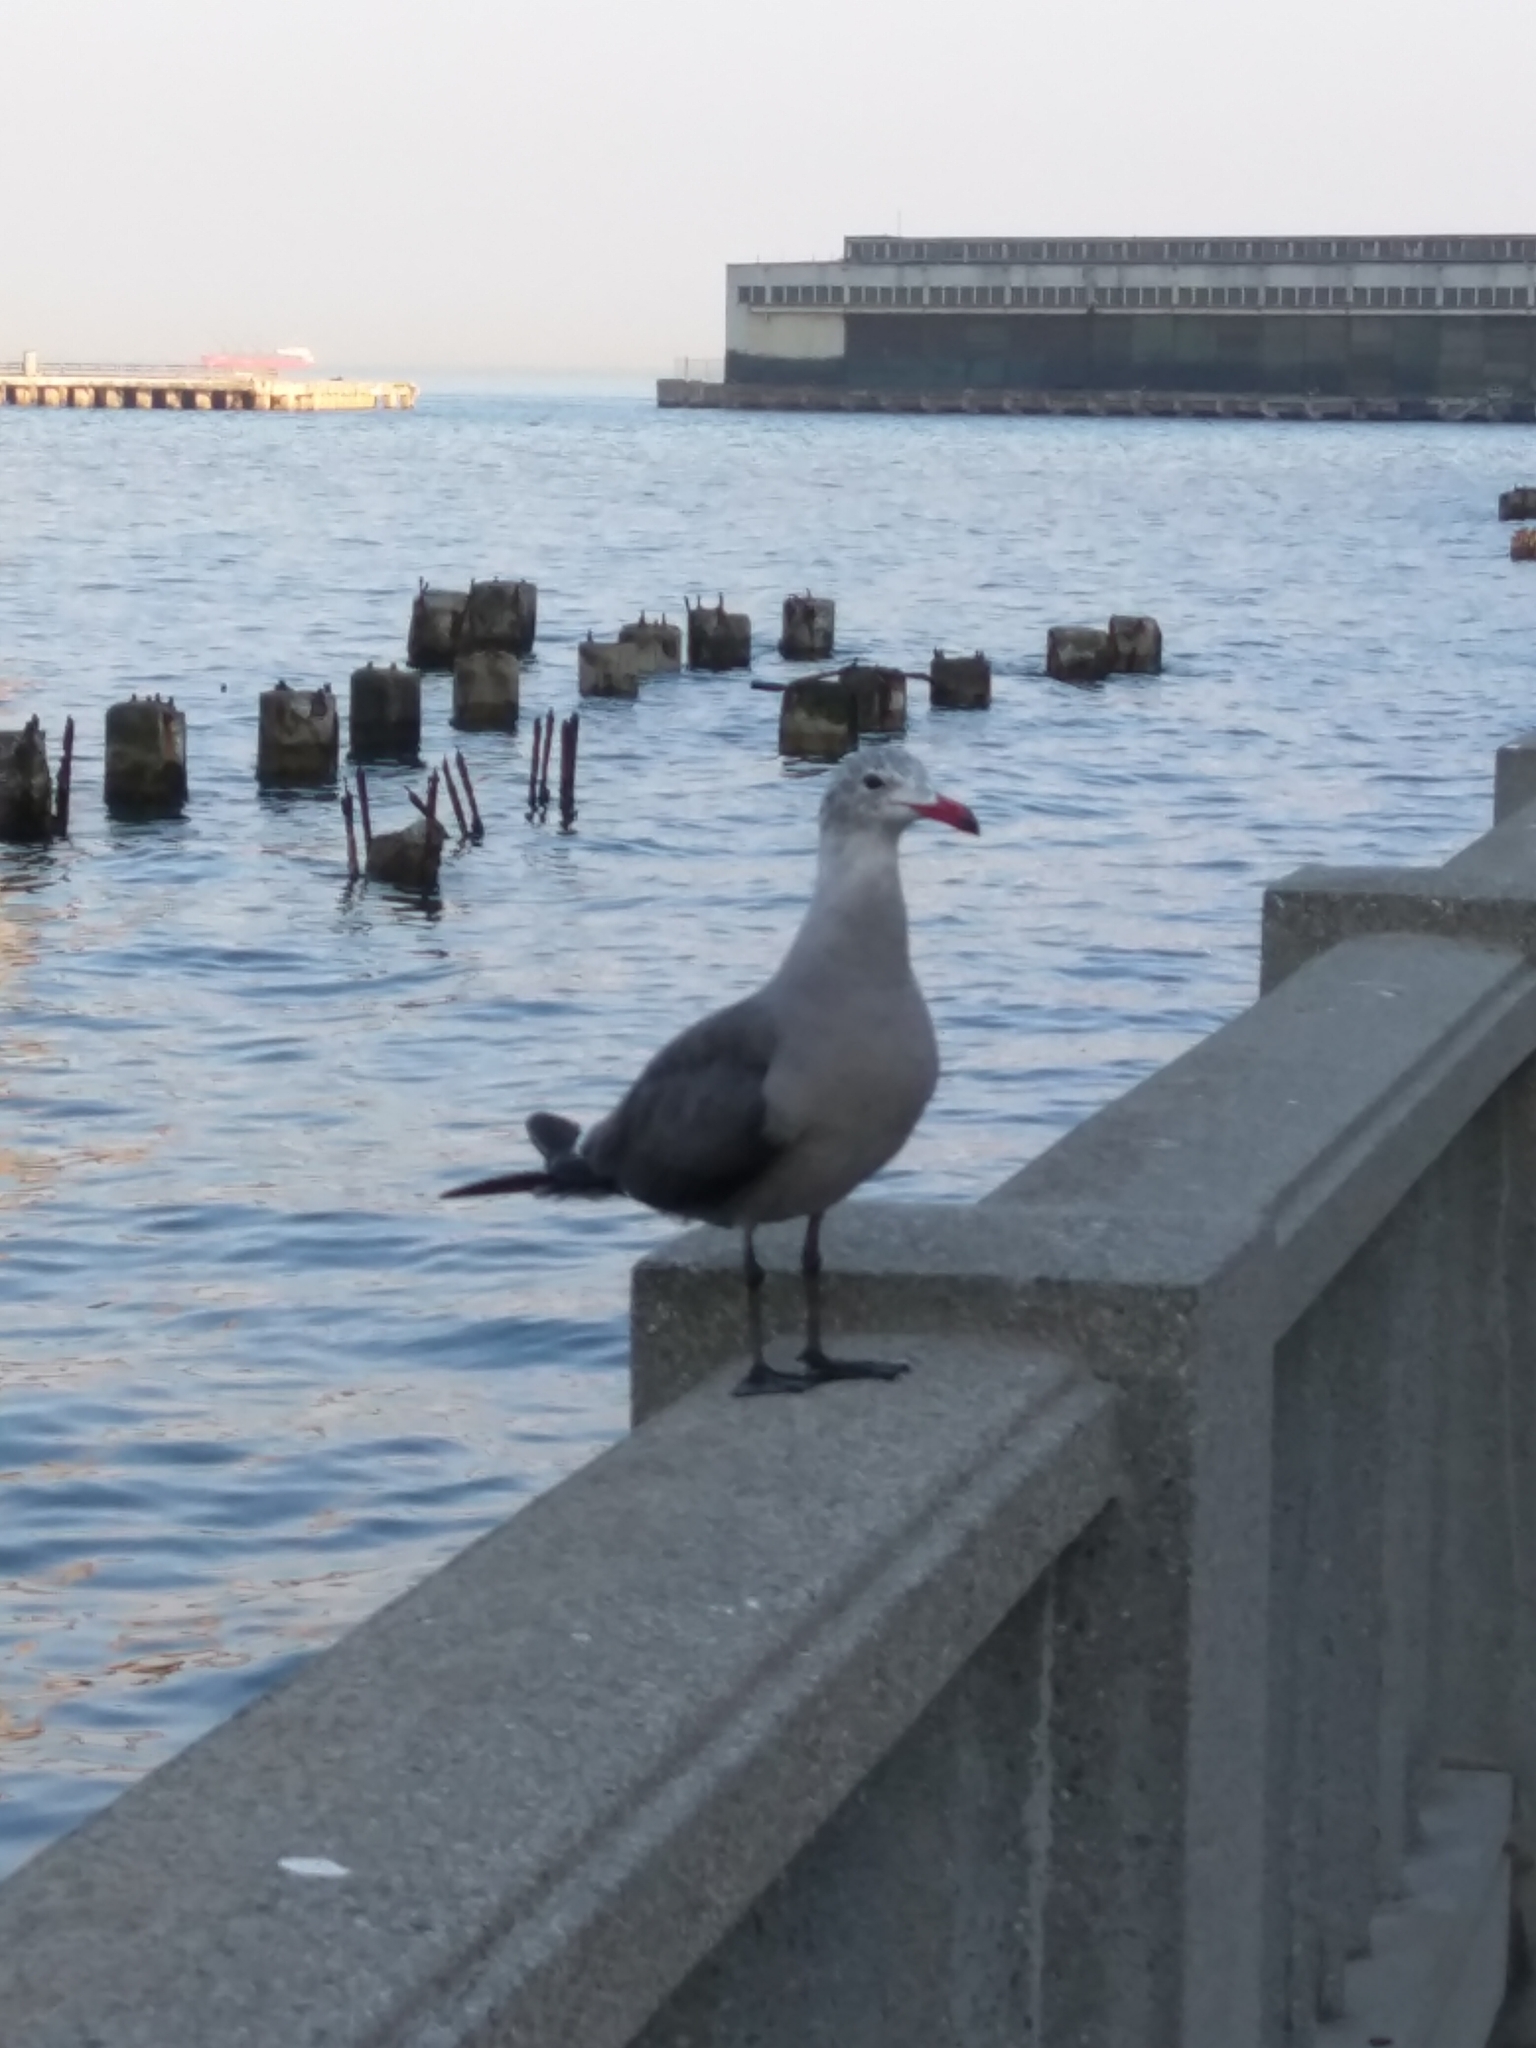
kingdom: Animalia
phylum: Chordata
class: Aves
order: Charadriiformes
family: Laridae
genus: Larus
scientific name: Larus heermanni
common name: Heermann's gull
